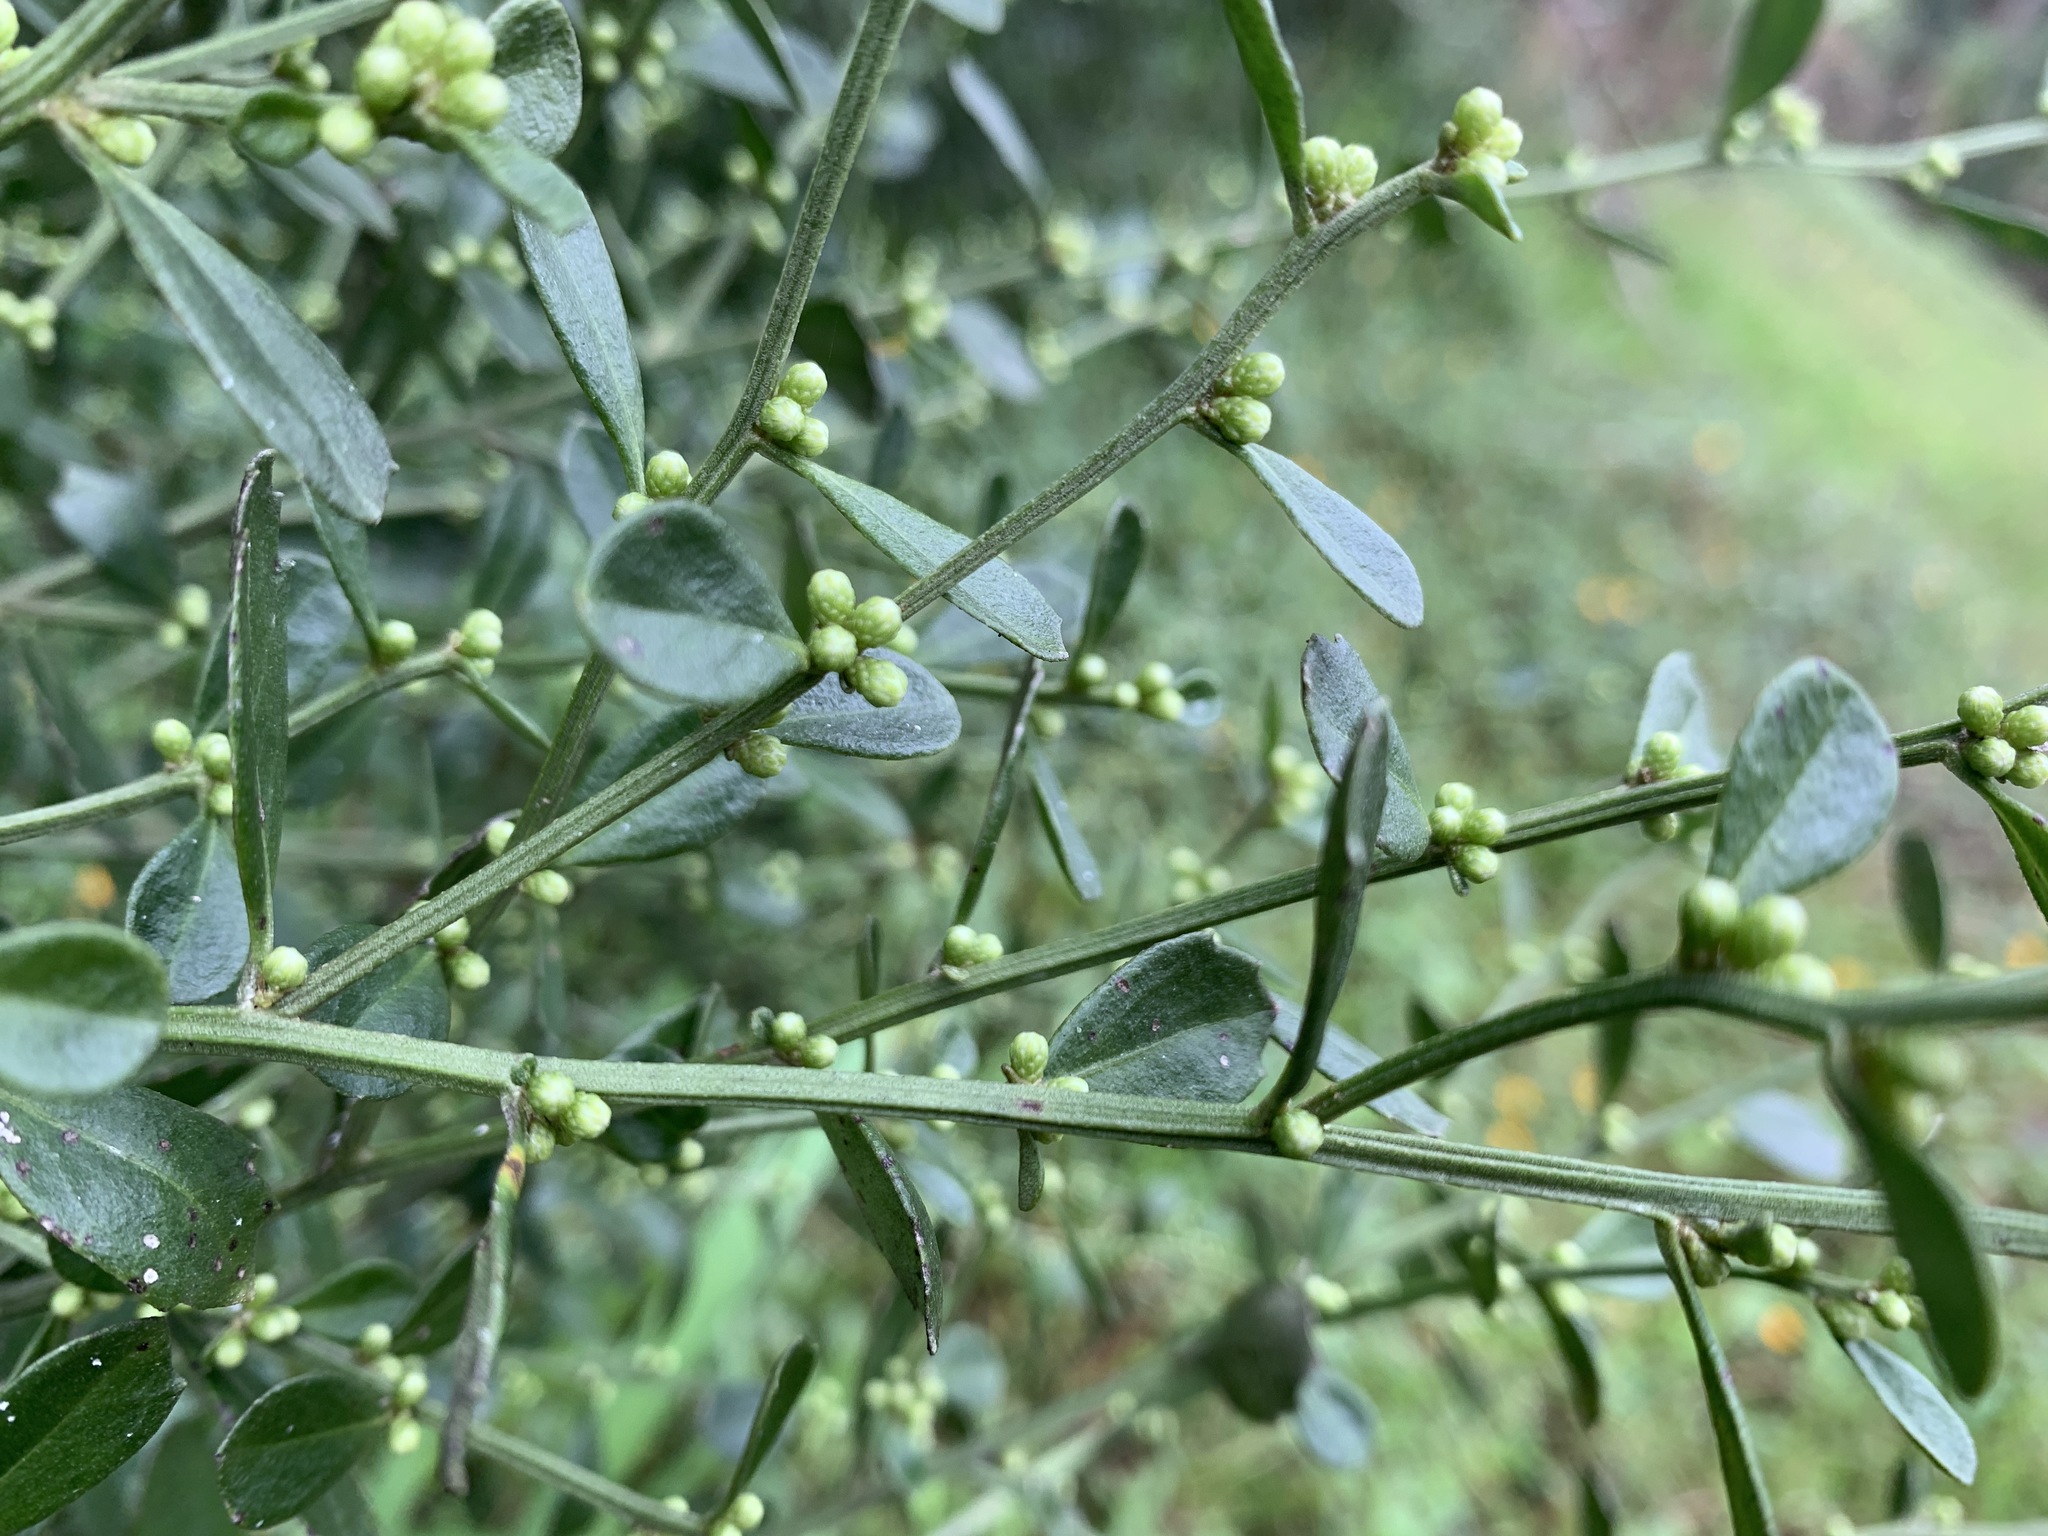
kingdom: Plantae
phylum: Tracheophyta
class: Magnoliopsida
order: Asterales
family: Asteraceae
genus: Baccharis
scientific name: Baccharis glomeruliflora
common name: Silverling groundsel bush
